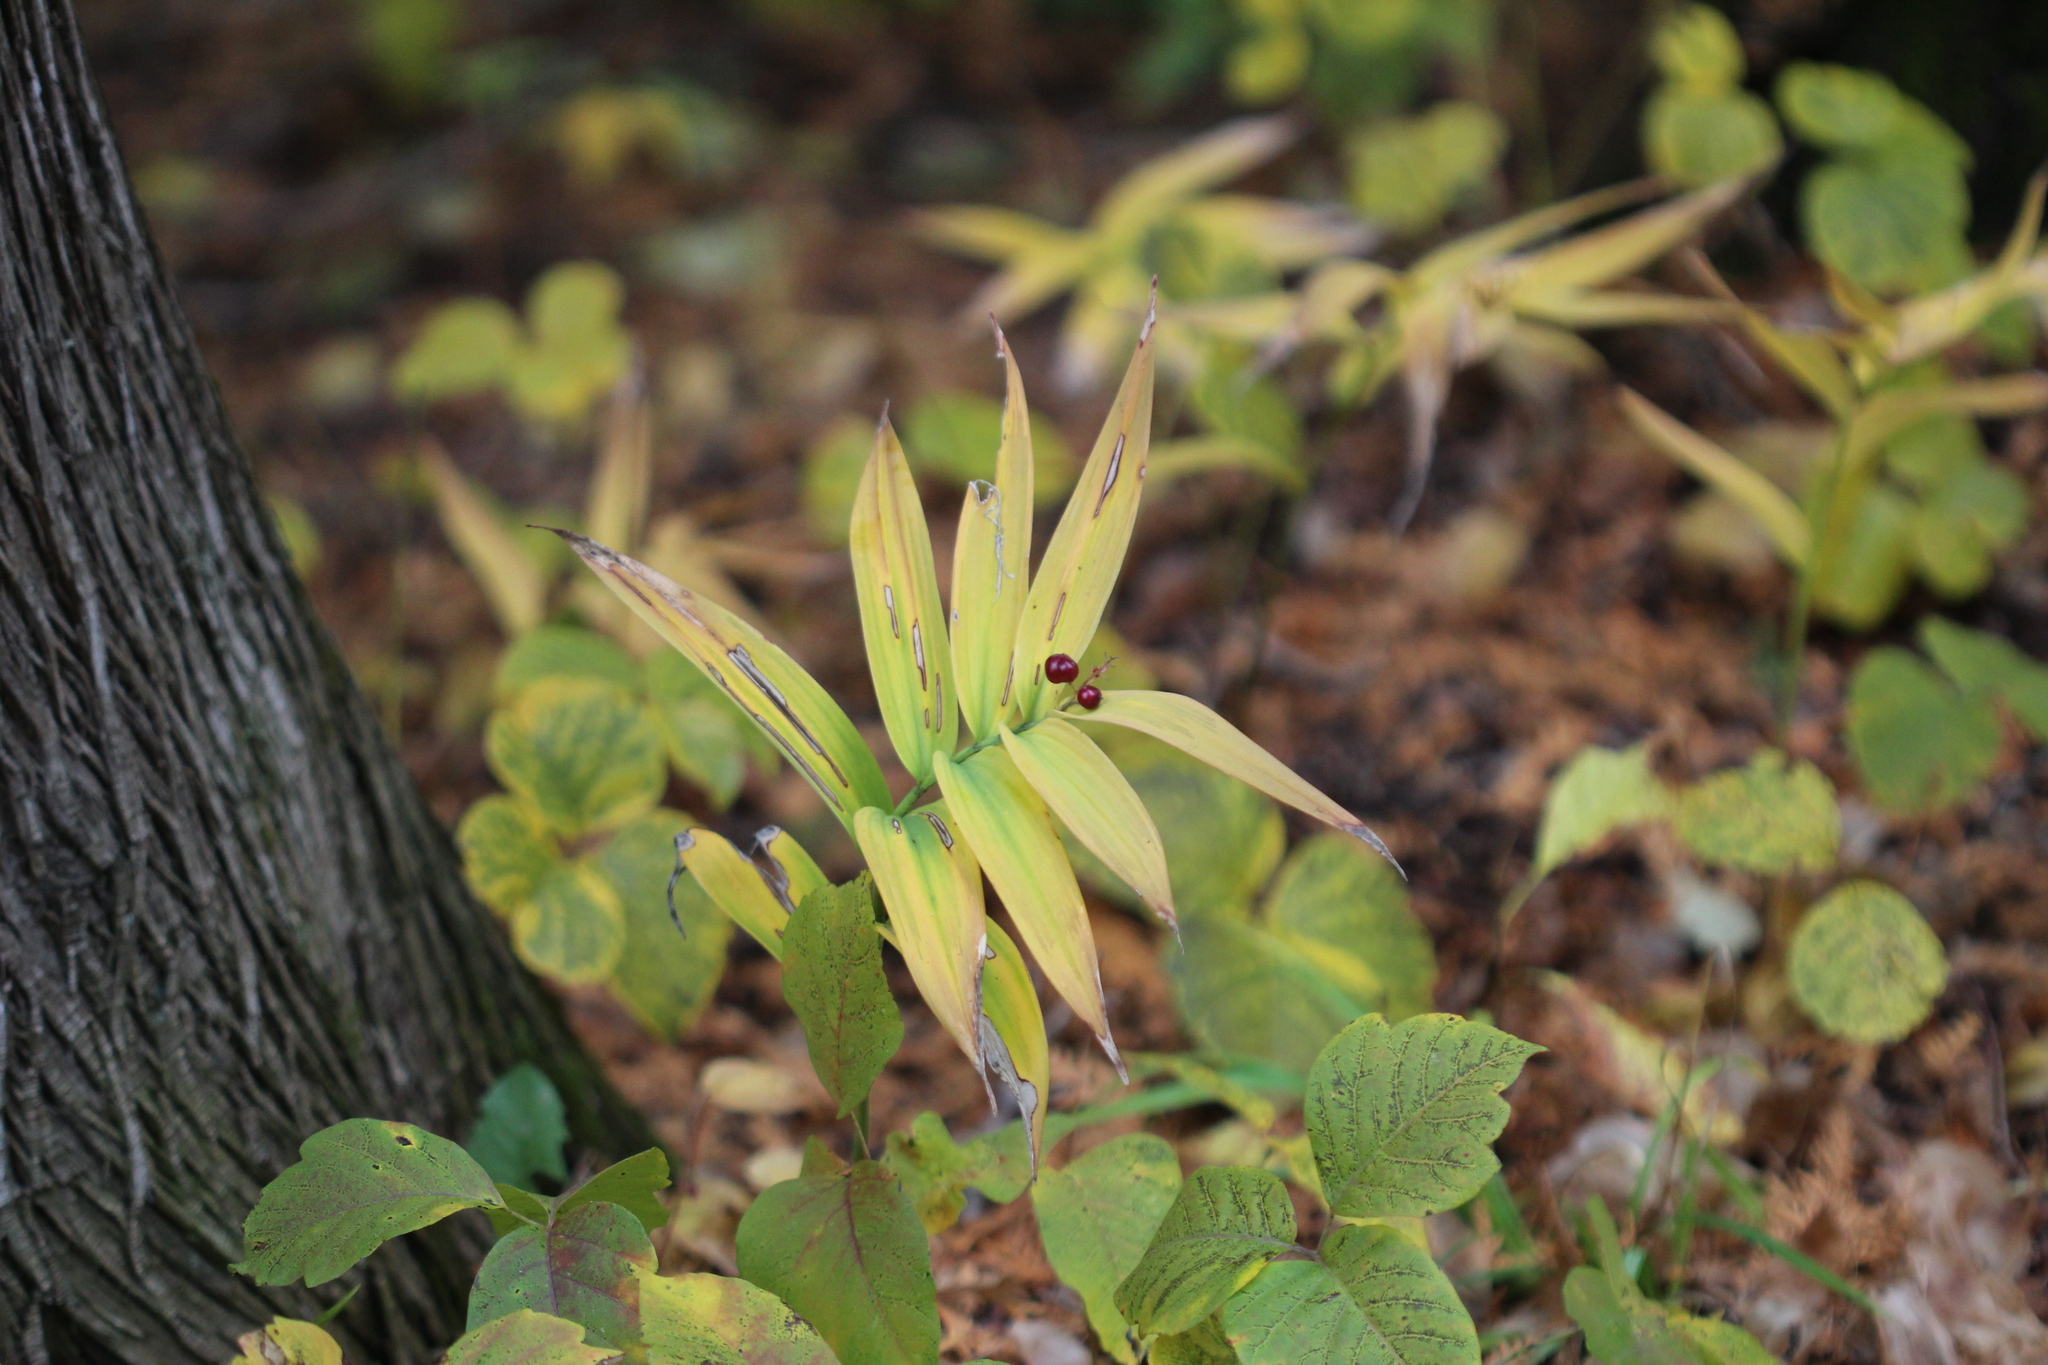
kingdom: Plantae
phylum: Tracheophyta
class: Liliopsida
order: Asparagales
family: Asparagaceae
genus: Maianthemum
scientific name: Maianthemum stellatum
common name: Little false solomon's seal
